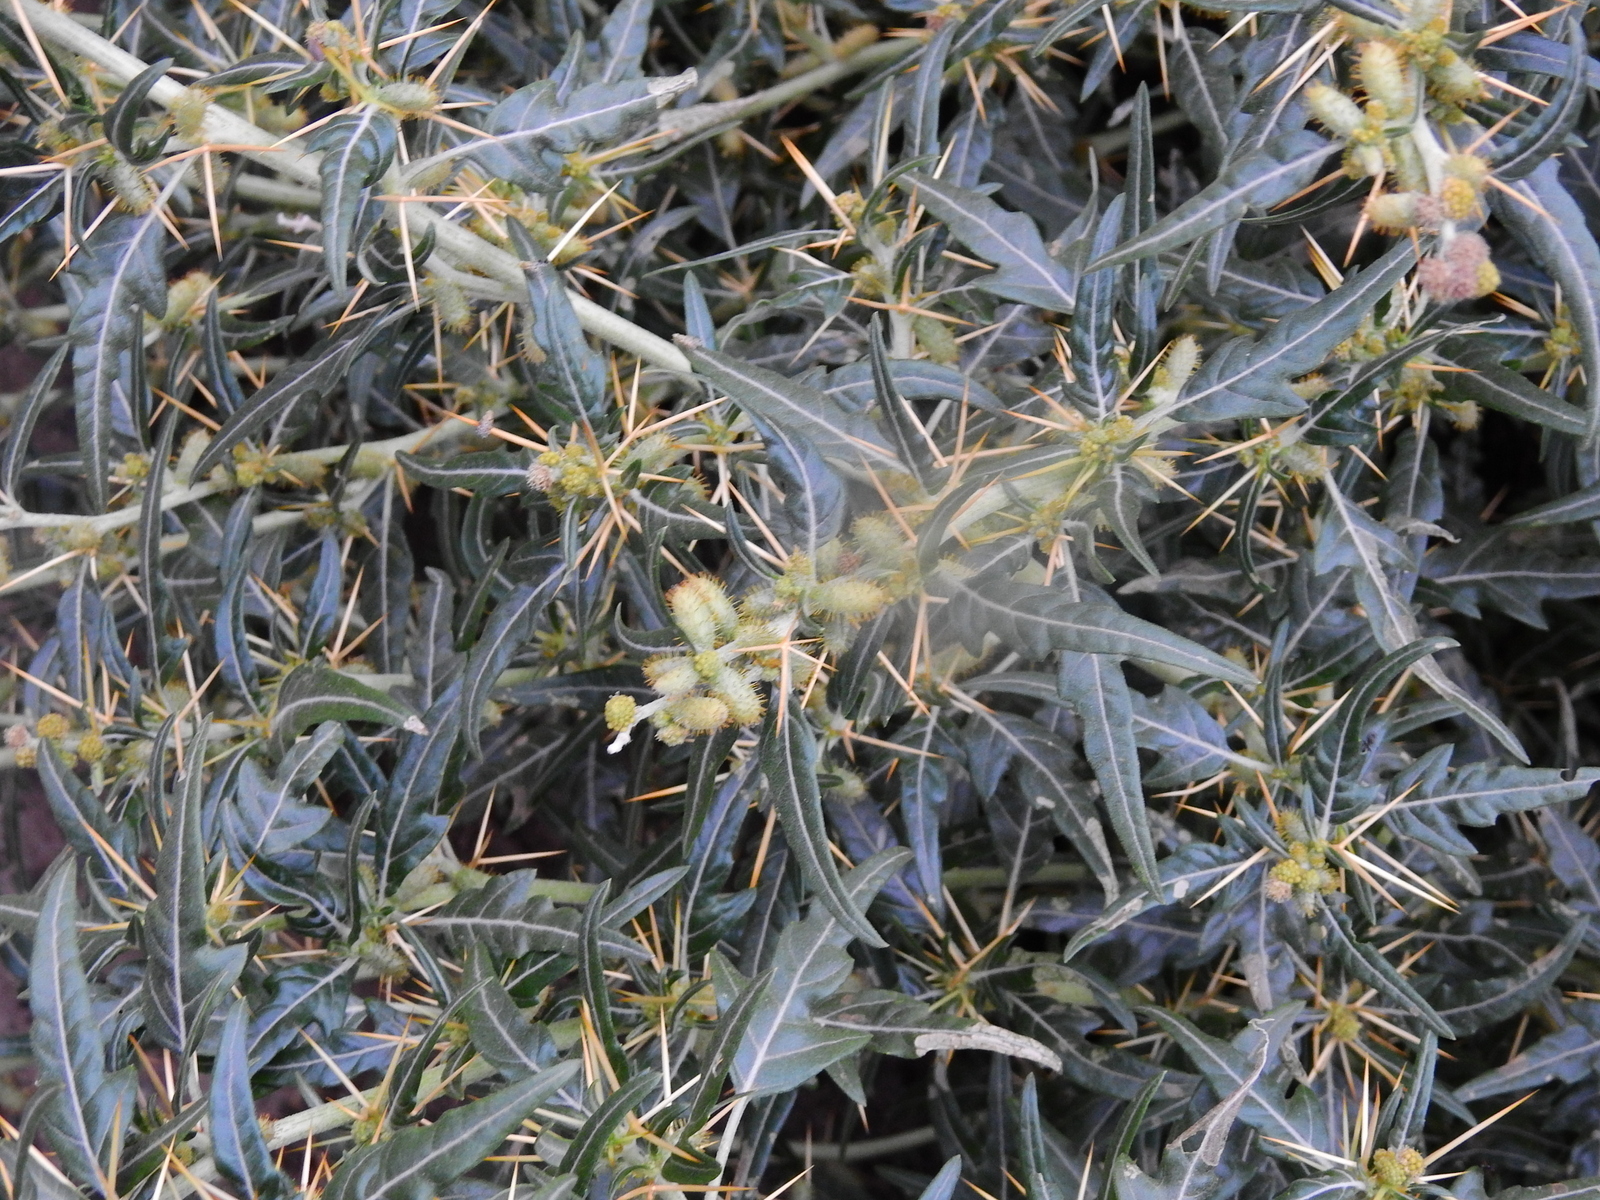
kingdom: Plantae
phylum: Tracheophyta
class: Magnoliopsida
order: Asterales
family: Asteraceae
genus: Xanthium
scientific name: Xanthium spinosum
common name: Spiny cocklebur
